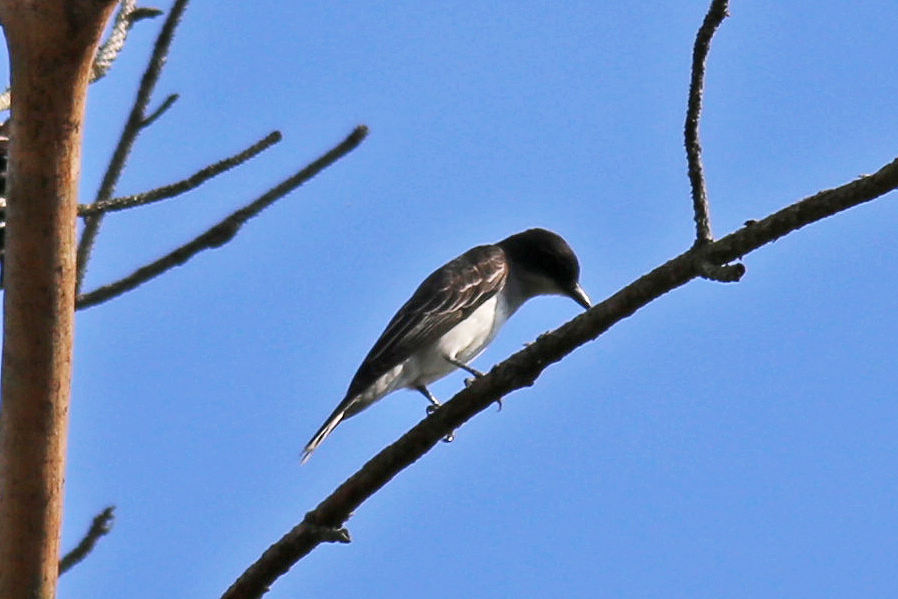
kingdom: Animalia
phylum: Chordata
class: Aves
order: Passeriformes
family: Tyrannidae
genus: Tyrannus
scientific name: Tyrannus tyrannus
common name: Eastern kingbird
